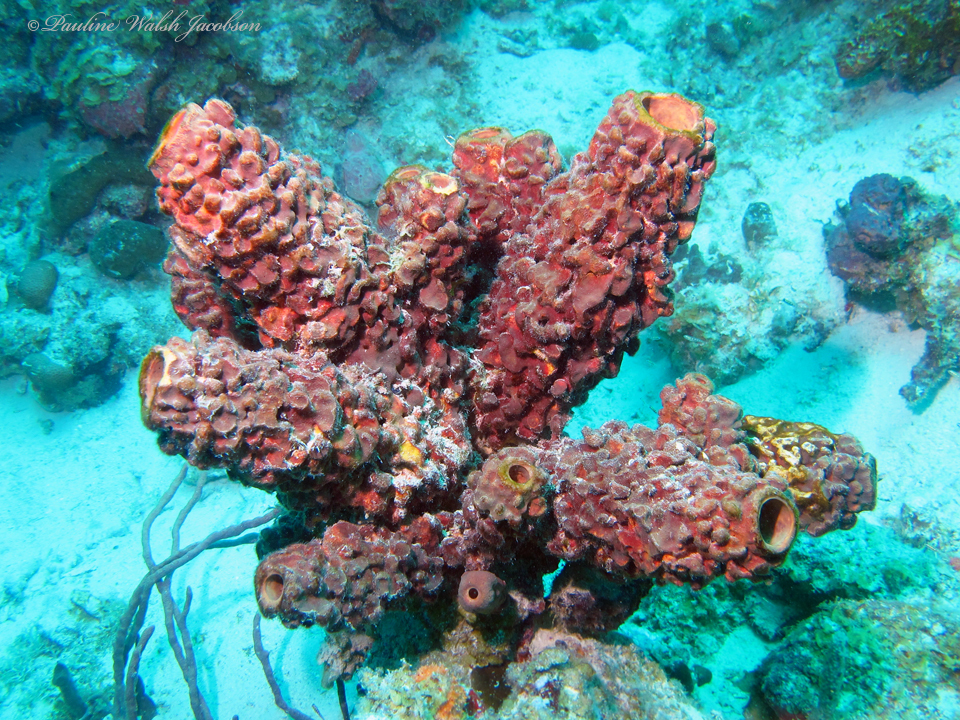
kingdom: Animalia
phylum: Porifera
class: Demospongiae
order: Verongiida
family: Aplysinidae
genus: Aplysina
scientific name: Aplysina archeri
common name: Stove-pipe sponge
